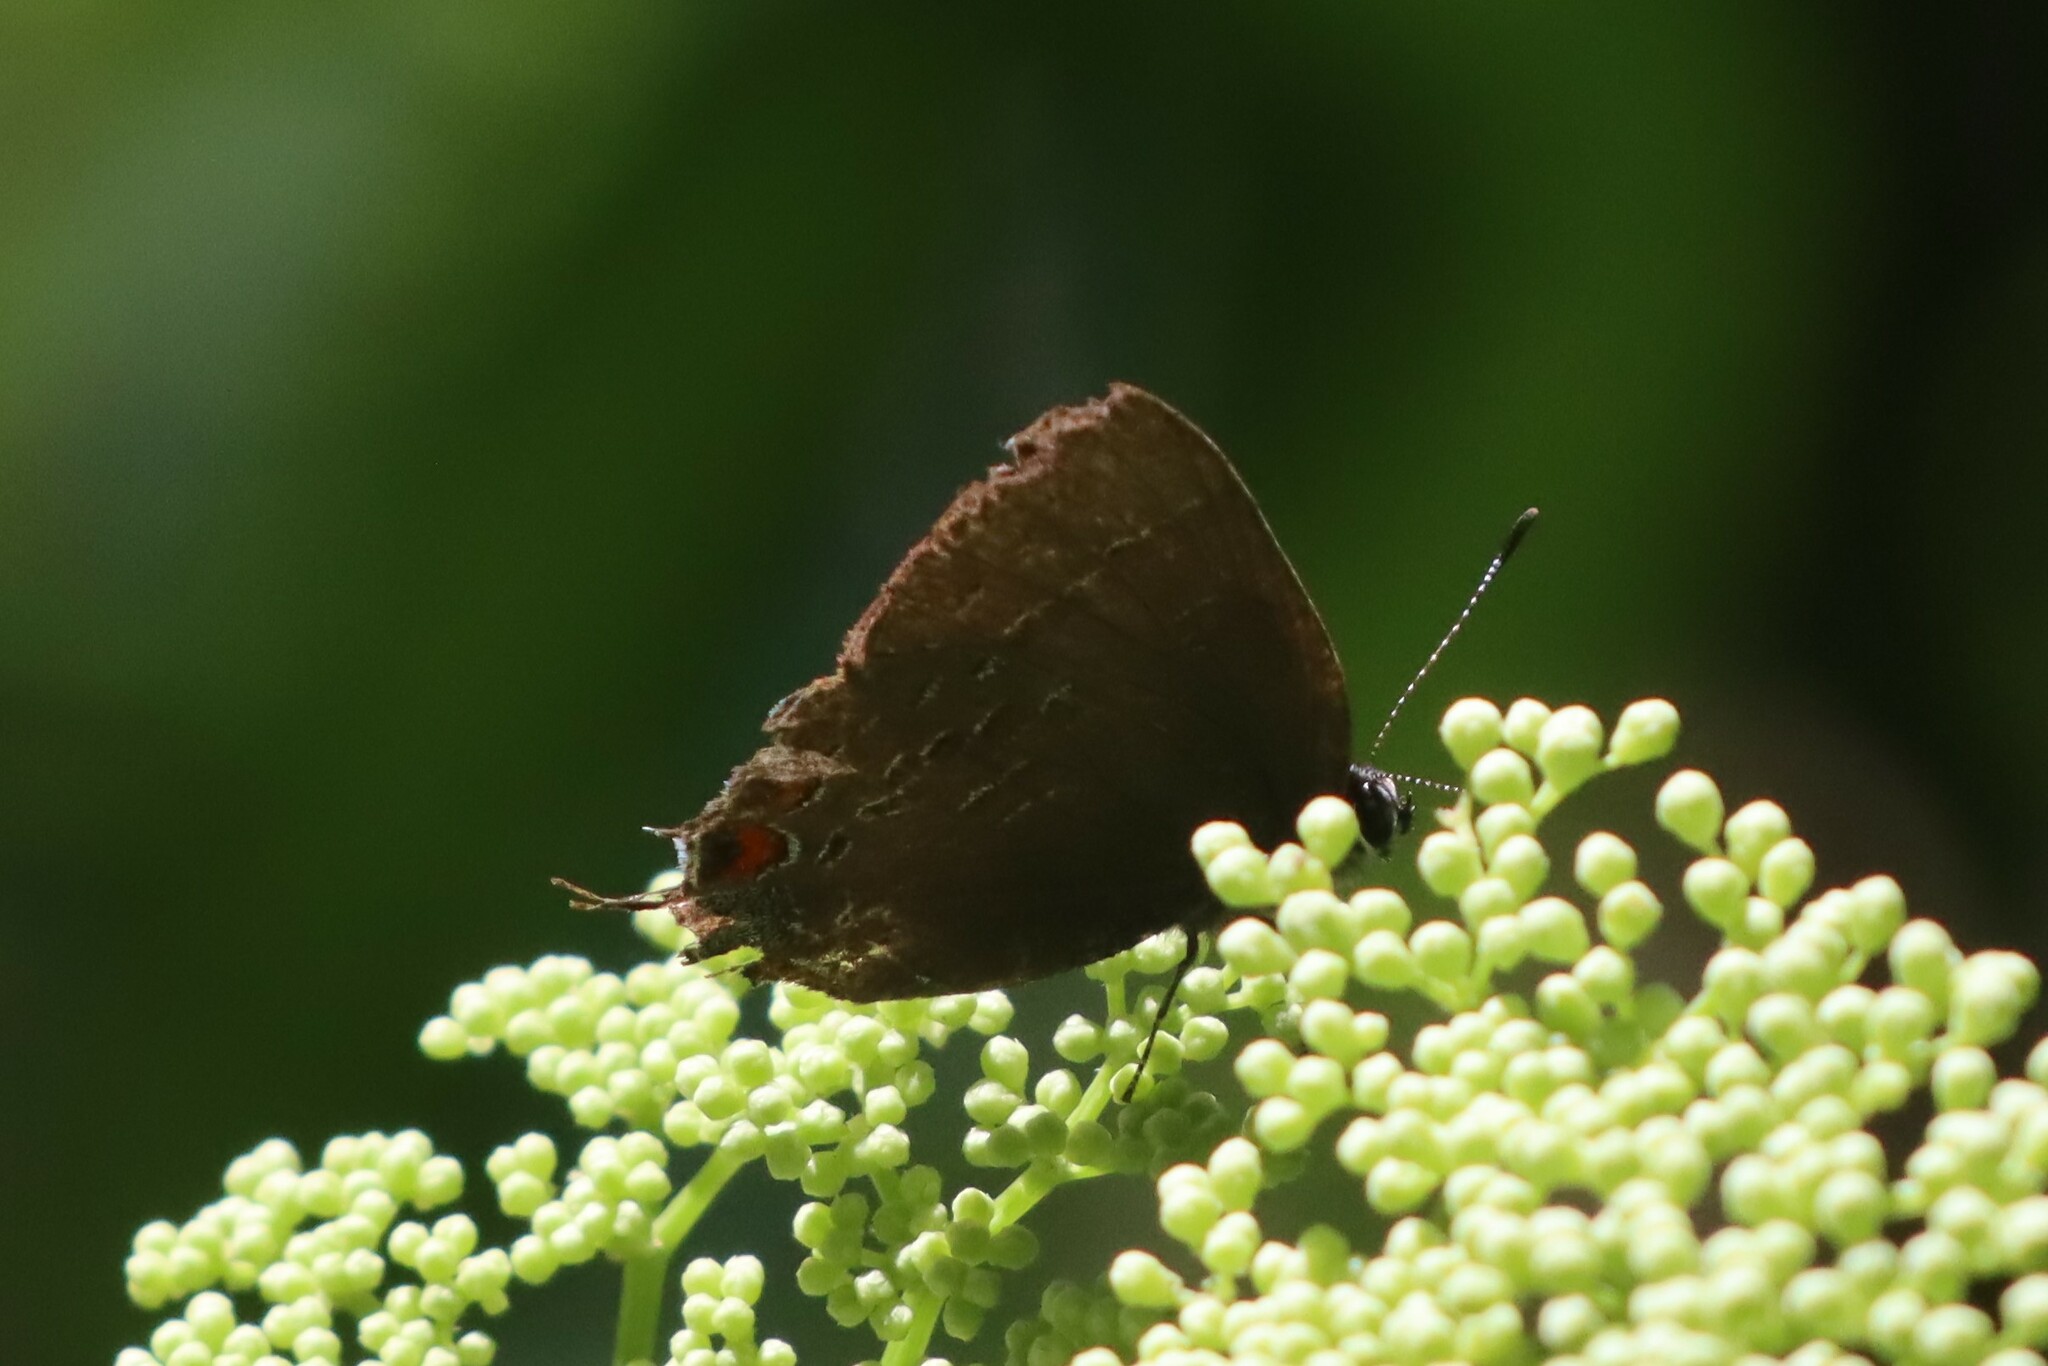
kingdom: Animalia
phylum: Arthropoda
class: Insecta
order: Lepidoptera
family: Lycaenidae
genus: Satyrium
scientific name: Satyrium calanus
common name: Banded hairstreak
